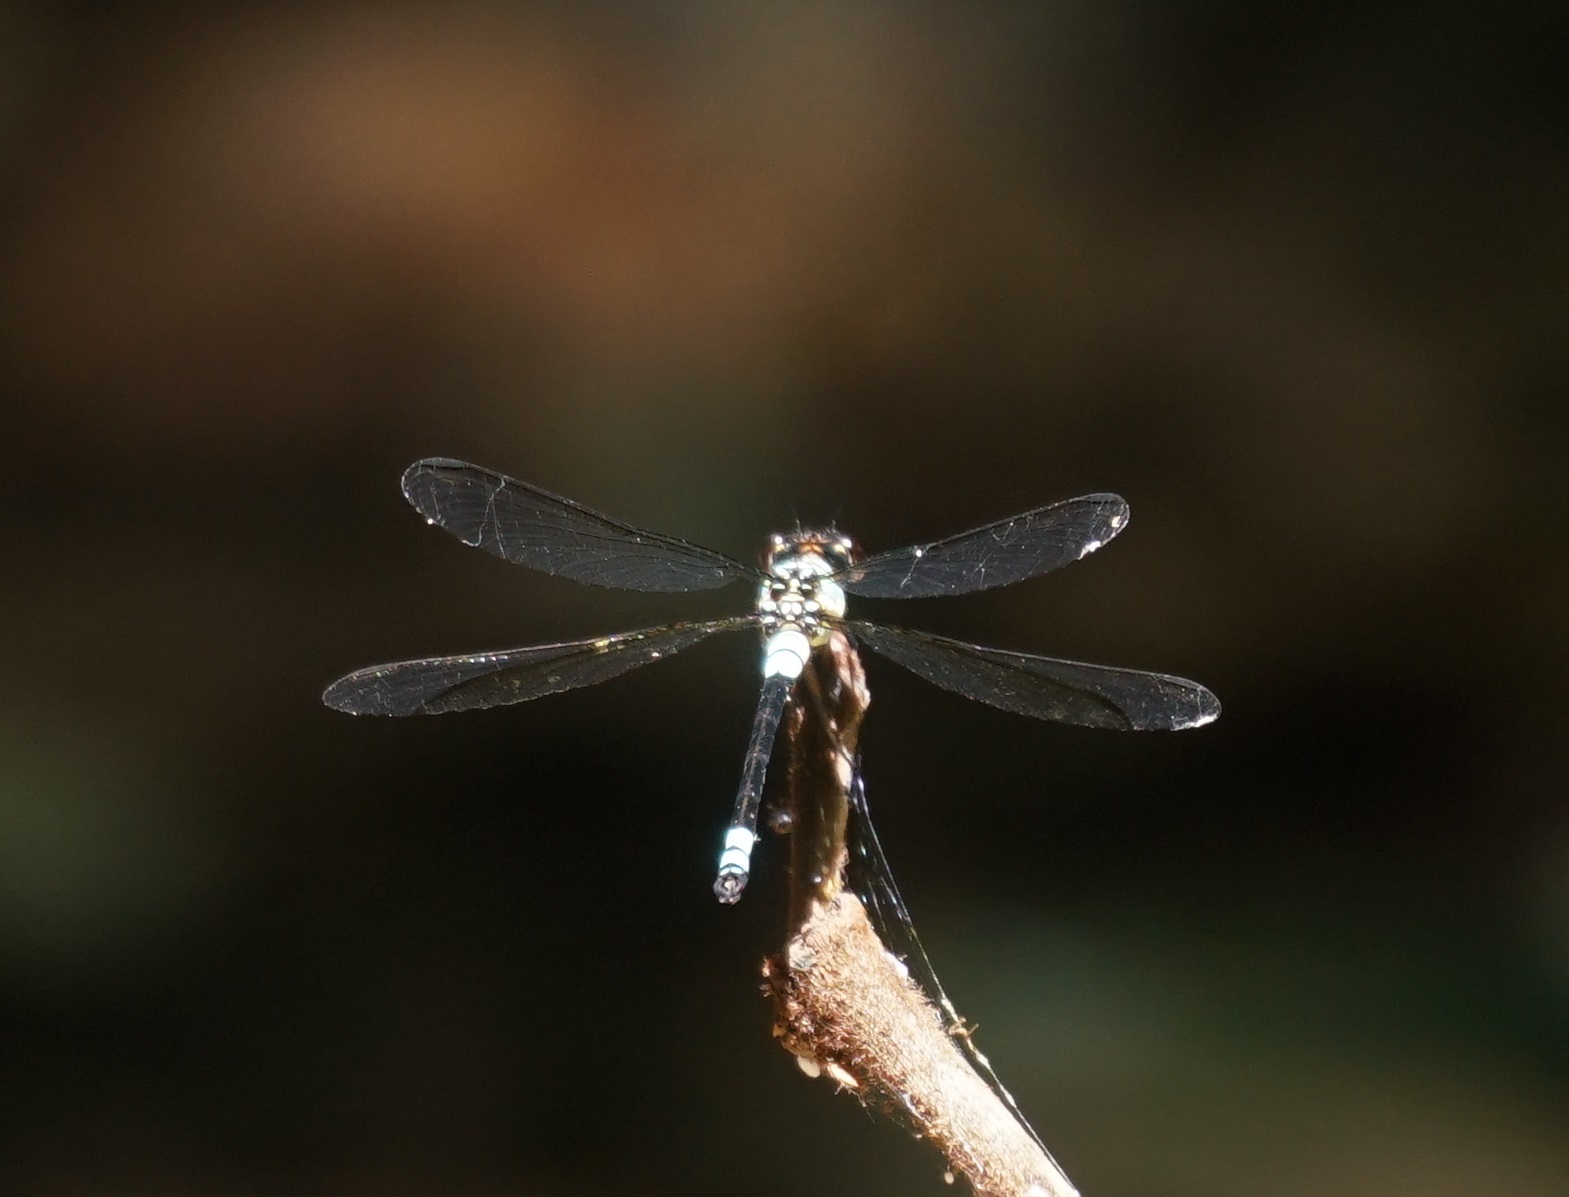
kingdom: Animalia
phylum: Arthropoda
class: Insecta
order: Odonata
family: Lestoideidae
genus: Diphlebia
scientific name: Diphlebia euphoeoides
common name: Tropical rockmaster
